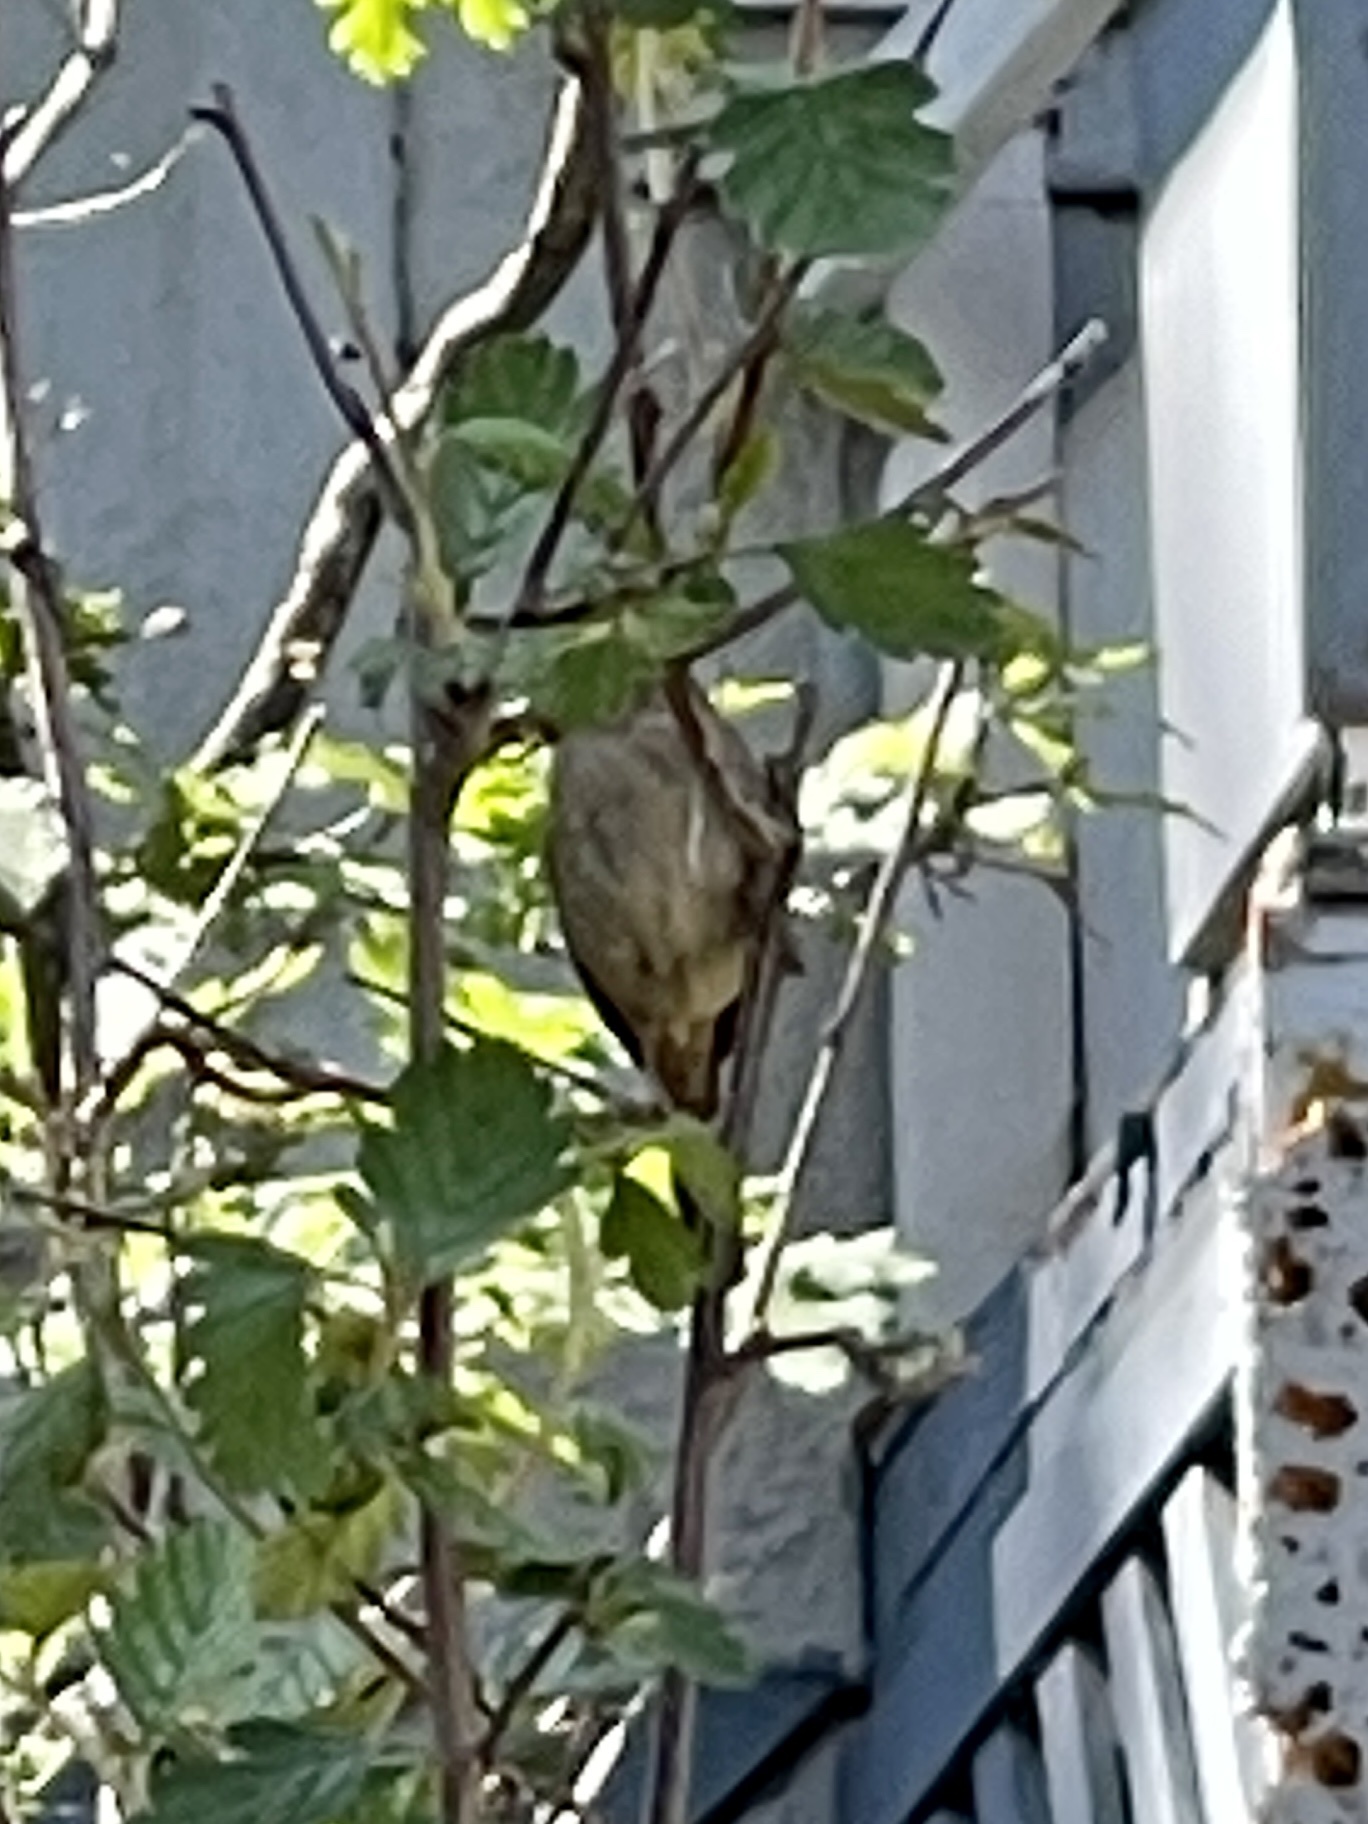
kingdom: Animalia
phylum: Chordata
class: Aves
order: Passeriformes
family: Troglodytidae
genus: Troglodytes
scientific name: Troglodytes aedon
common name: House wren
